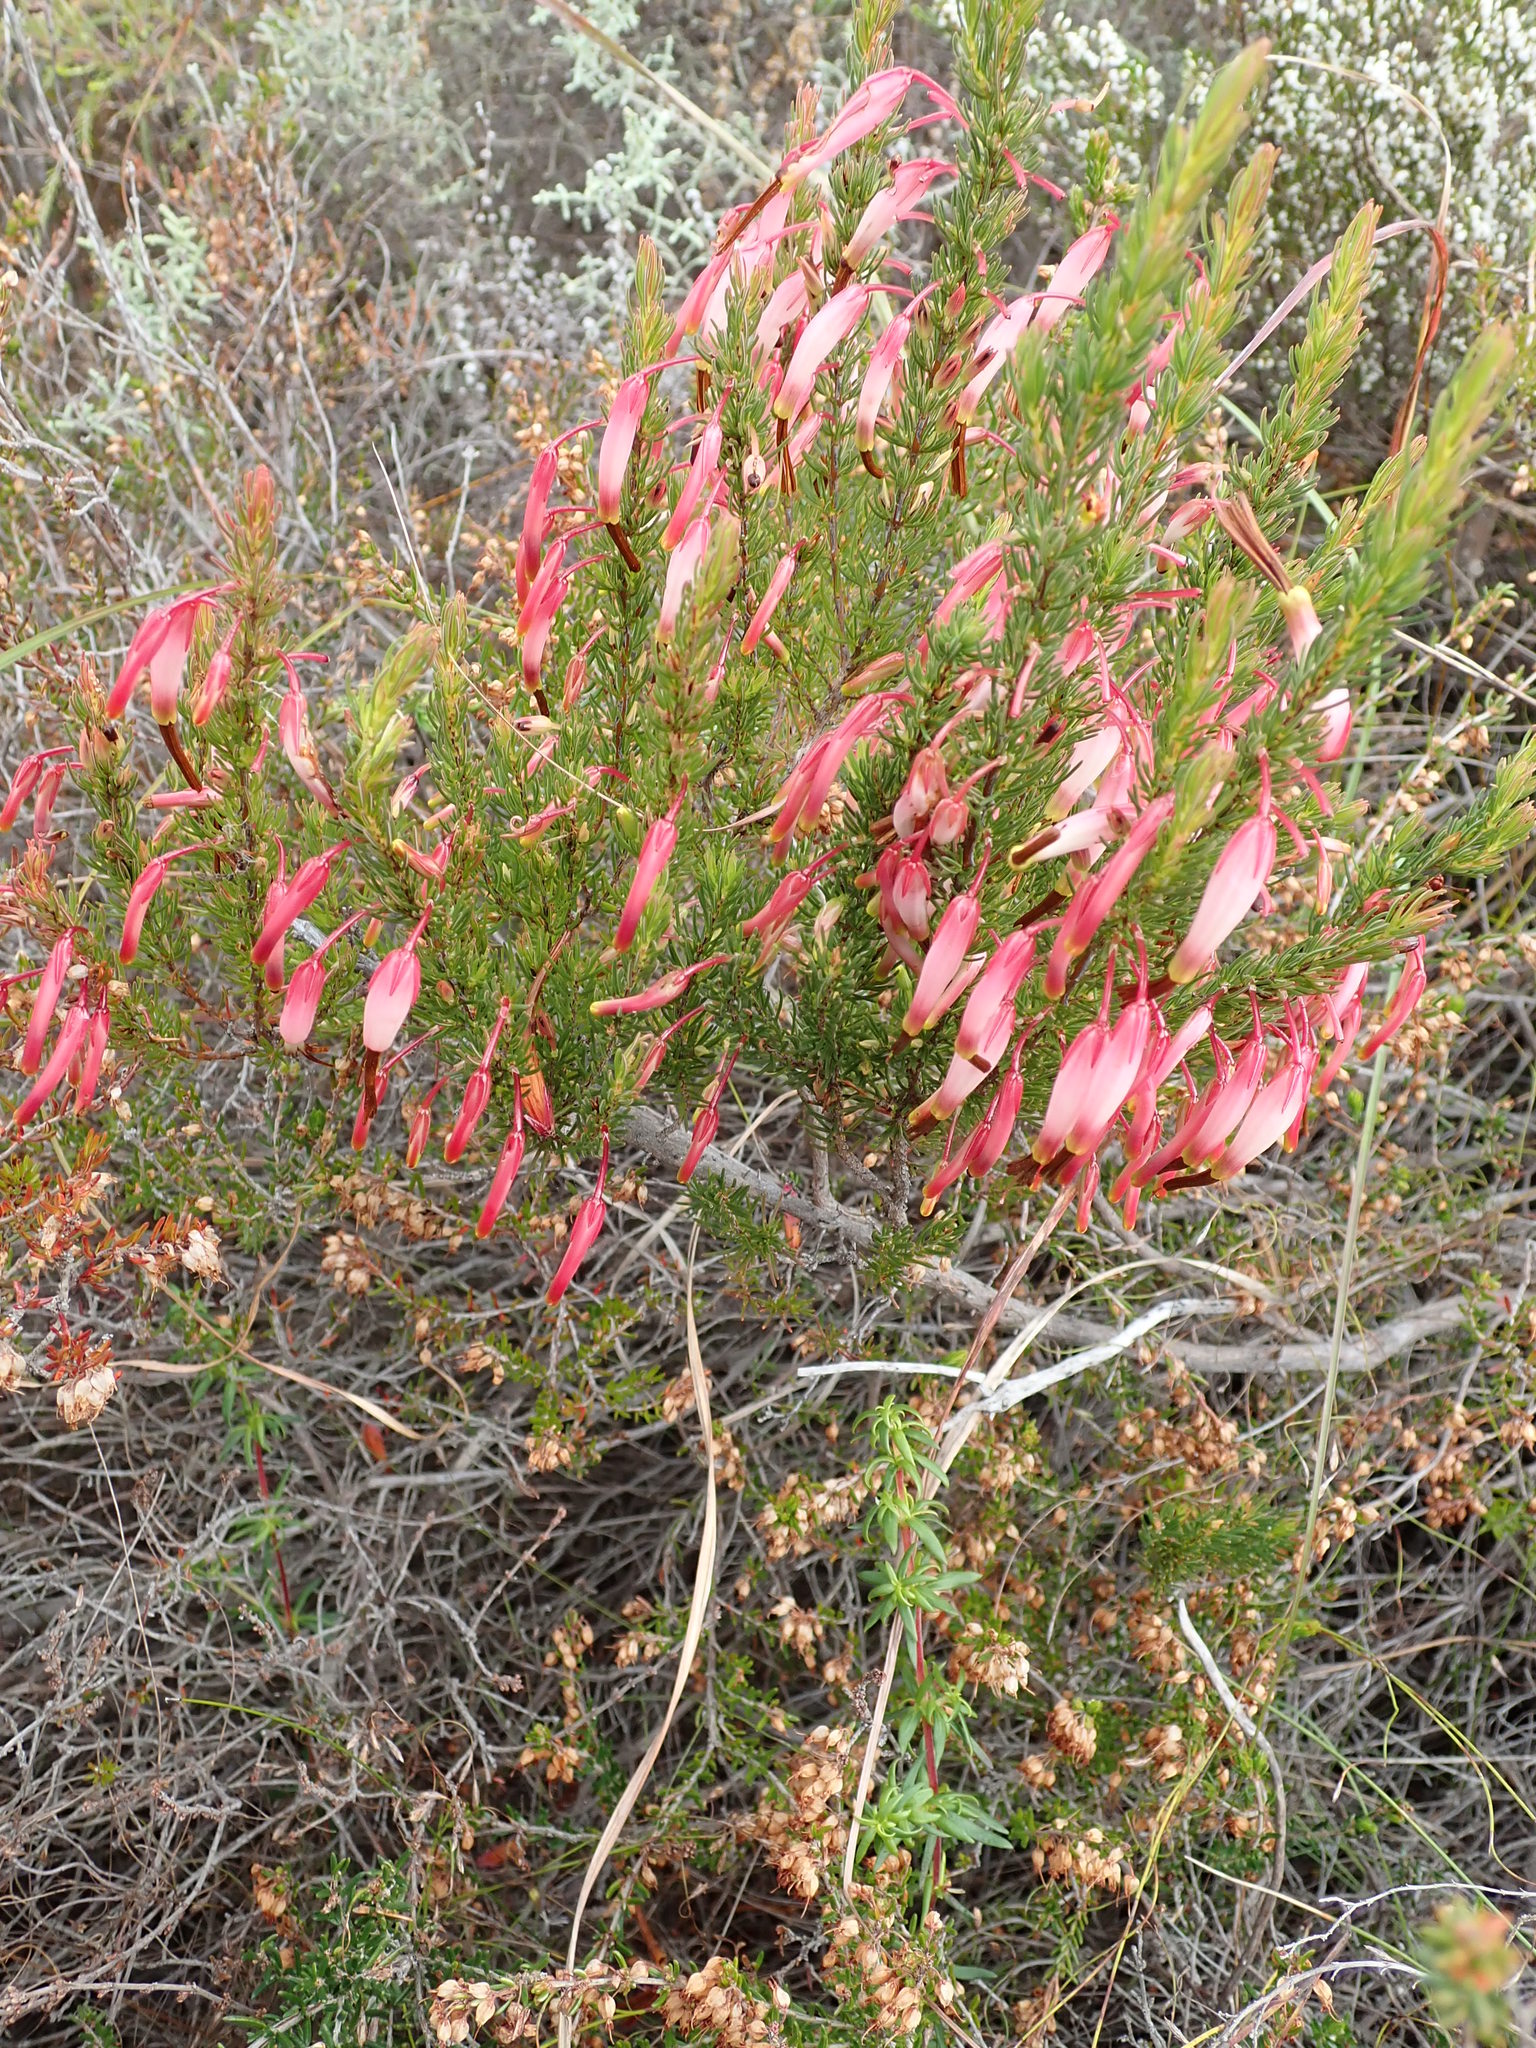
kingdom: Plantae
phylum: Tracheophyta
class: Magnoliopsida
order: Ericales
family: Ericaceae
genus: Erica
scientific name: Erica plukenetii
